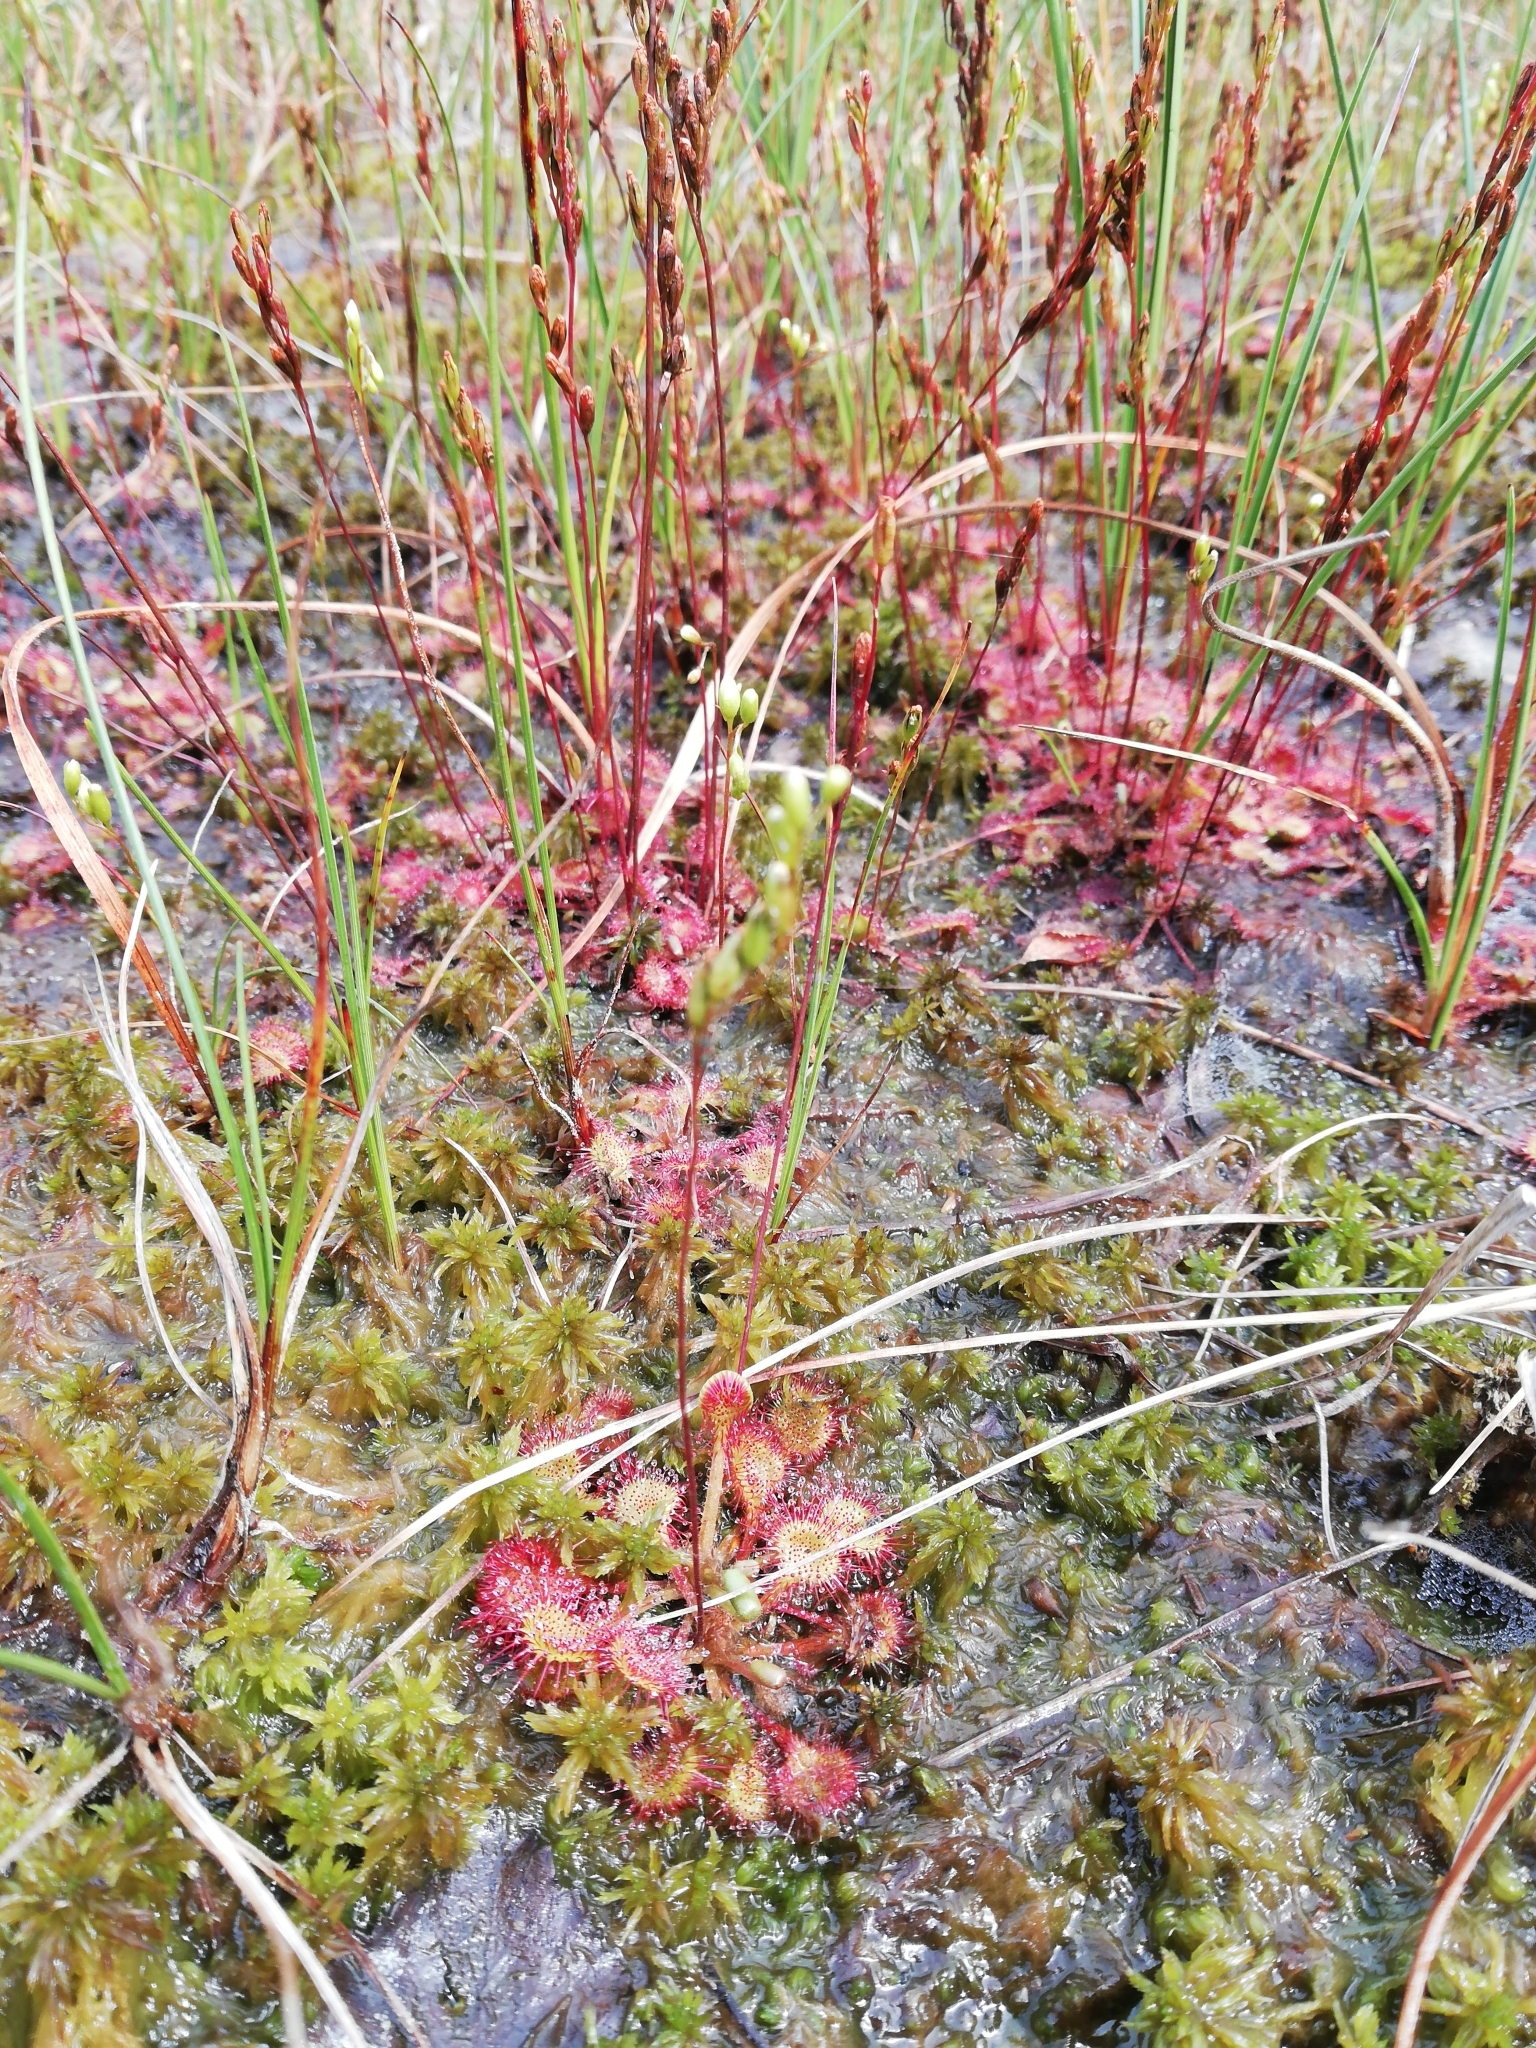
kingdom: Plantae
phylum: Tracheophyta
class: Magnoliopsida
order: Caryophyllales
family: Droseraceae
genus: Drosera
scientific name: Drosera rotundifolia
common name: Round-leaved sundew
